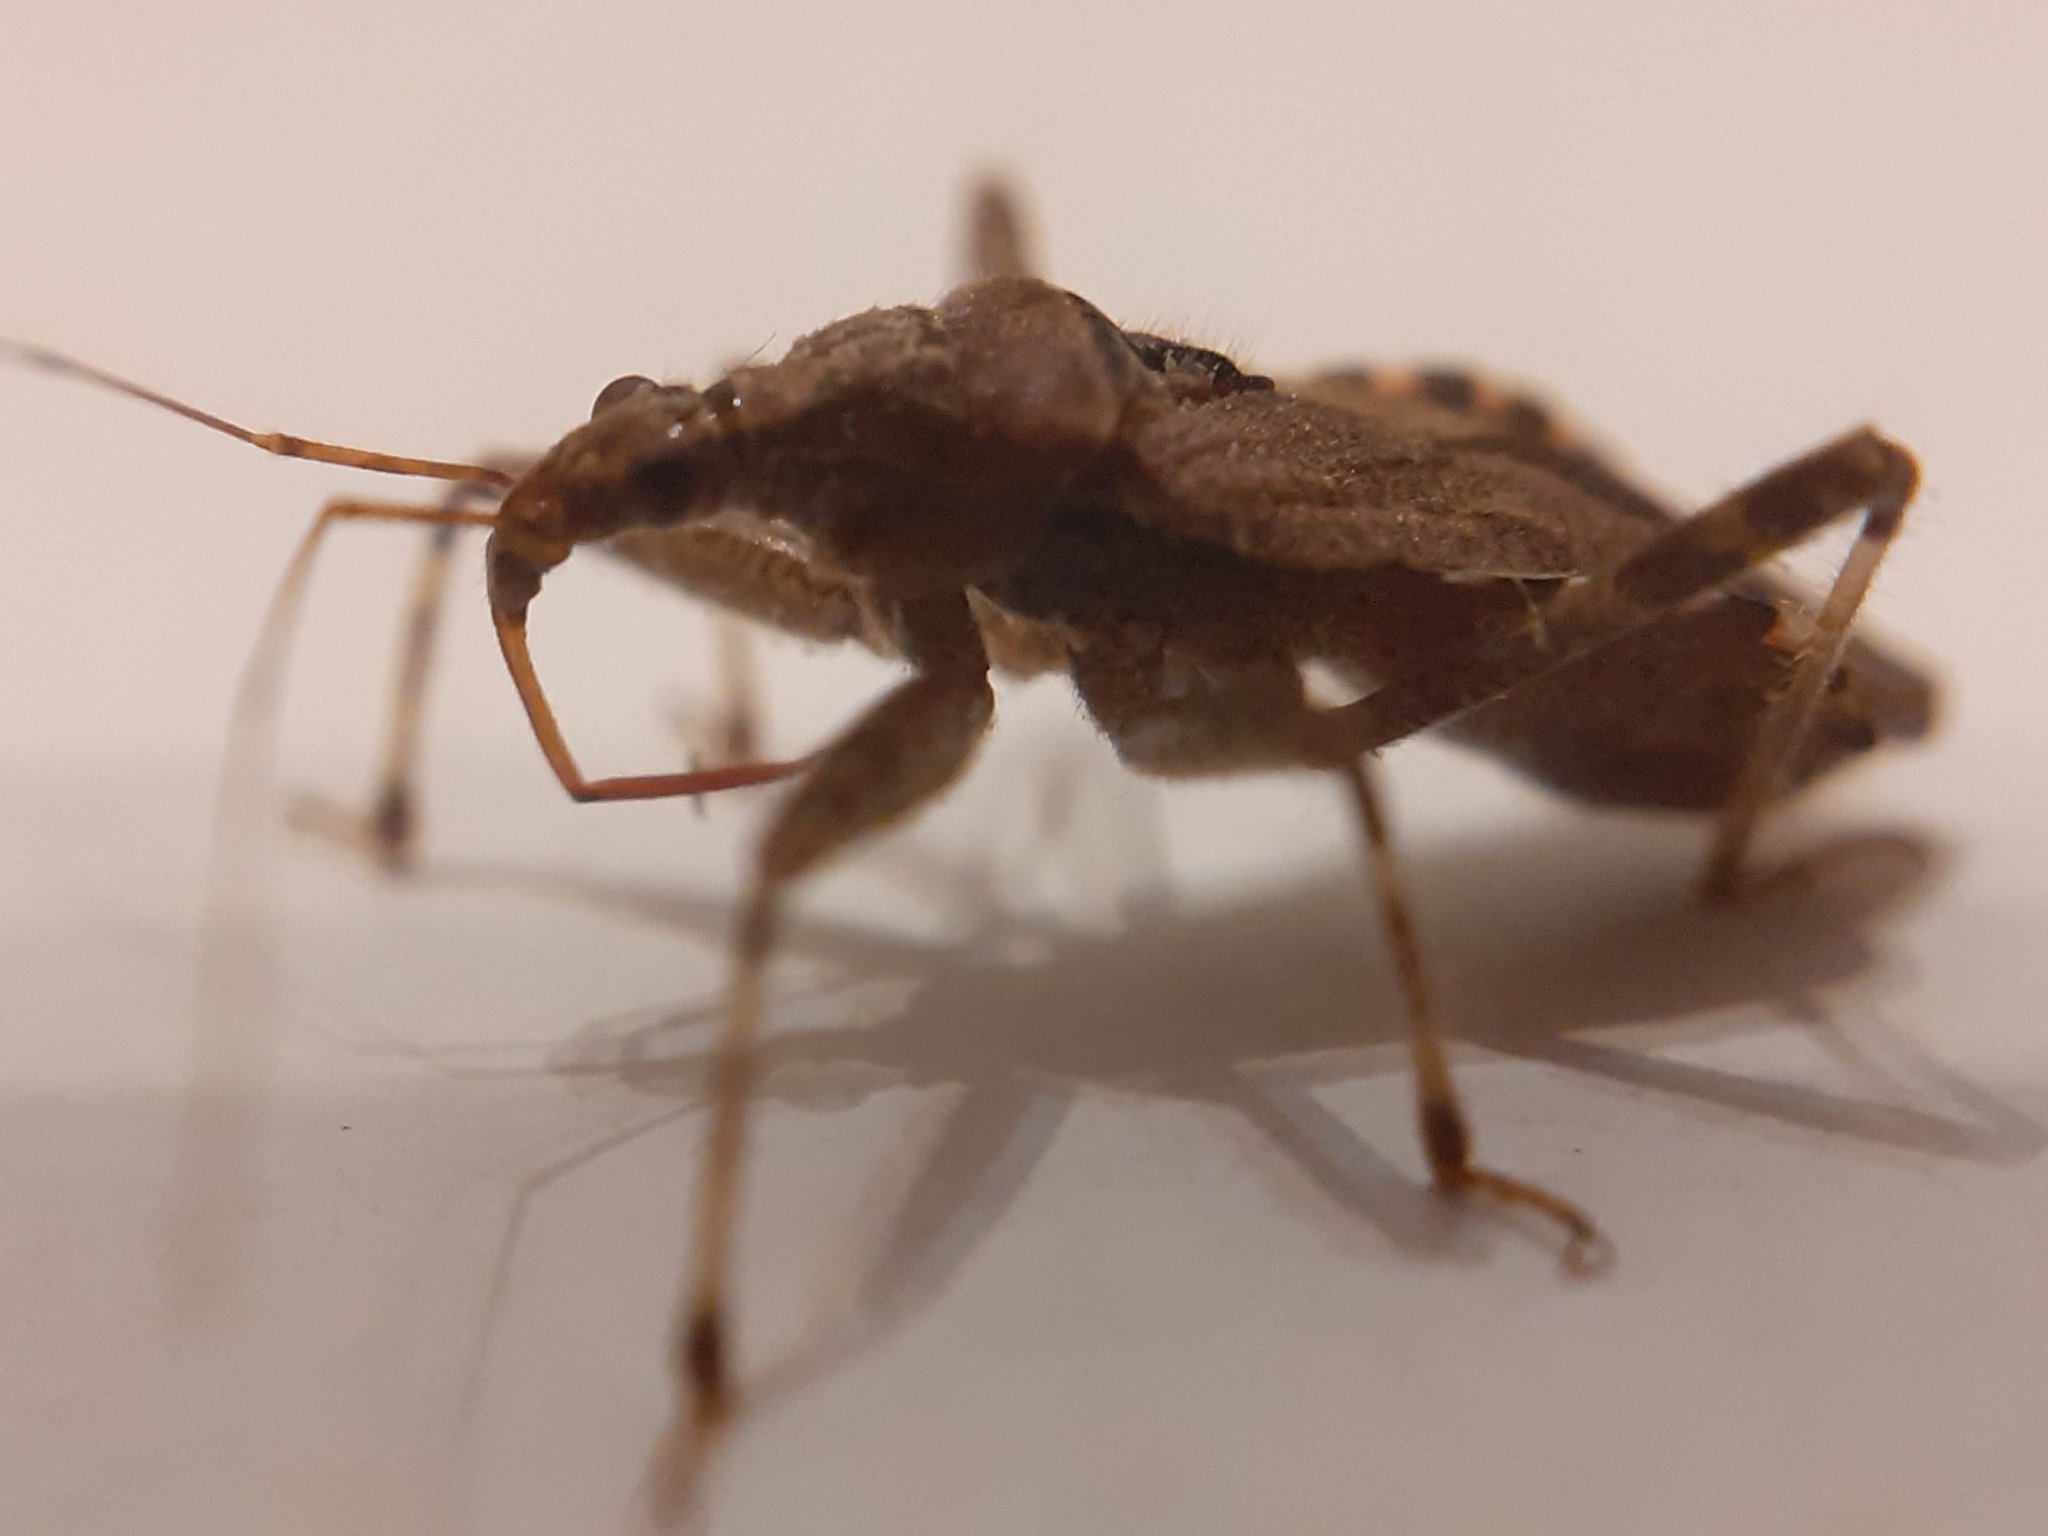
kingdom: Animalia
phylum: Arthropoda
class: Insecta
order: Hemiptera
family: Nabidae
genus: Himacerus
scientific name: Himacerus apterus
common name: Tree damsel bug
